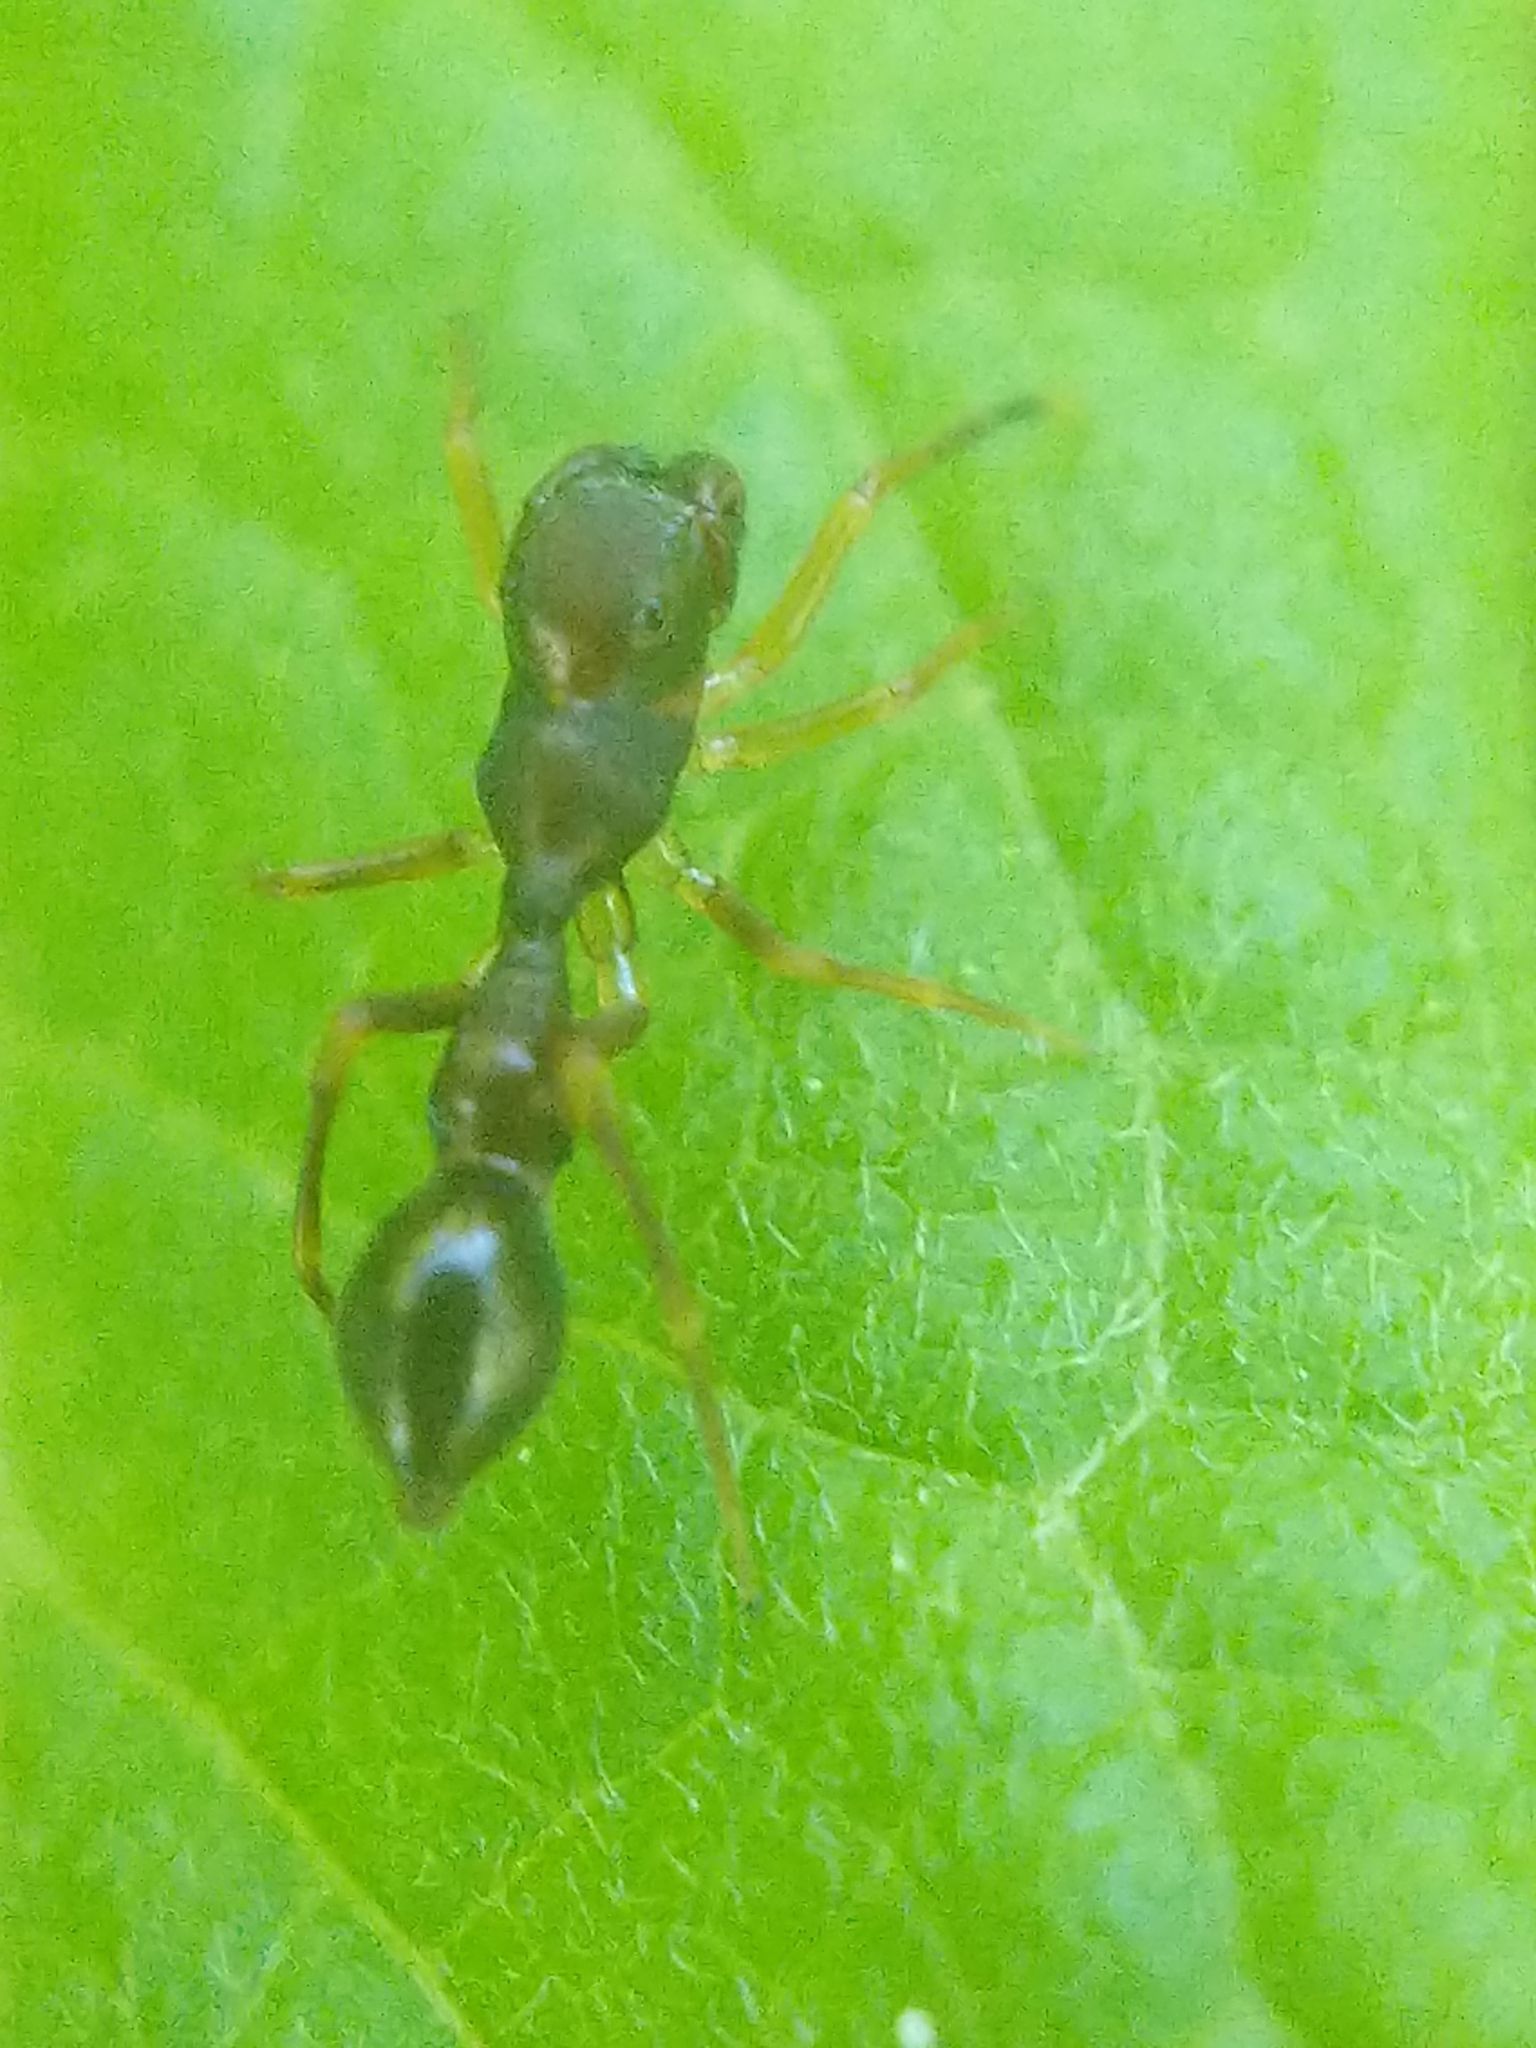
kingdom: Animalia
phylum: Arthropoda
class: Arachnida
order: Araneae
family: Salticidae
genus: Synemosyna
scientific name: Synemosyna formica
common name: Slender ant-mimic jumping spider
